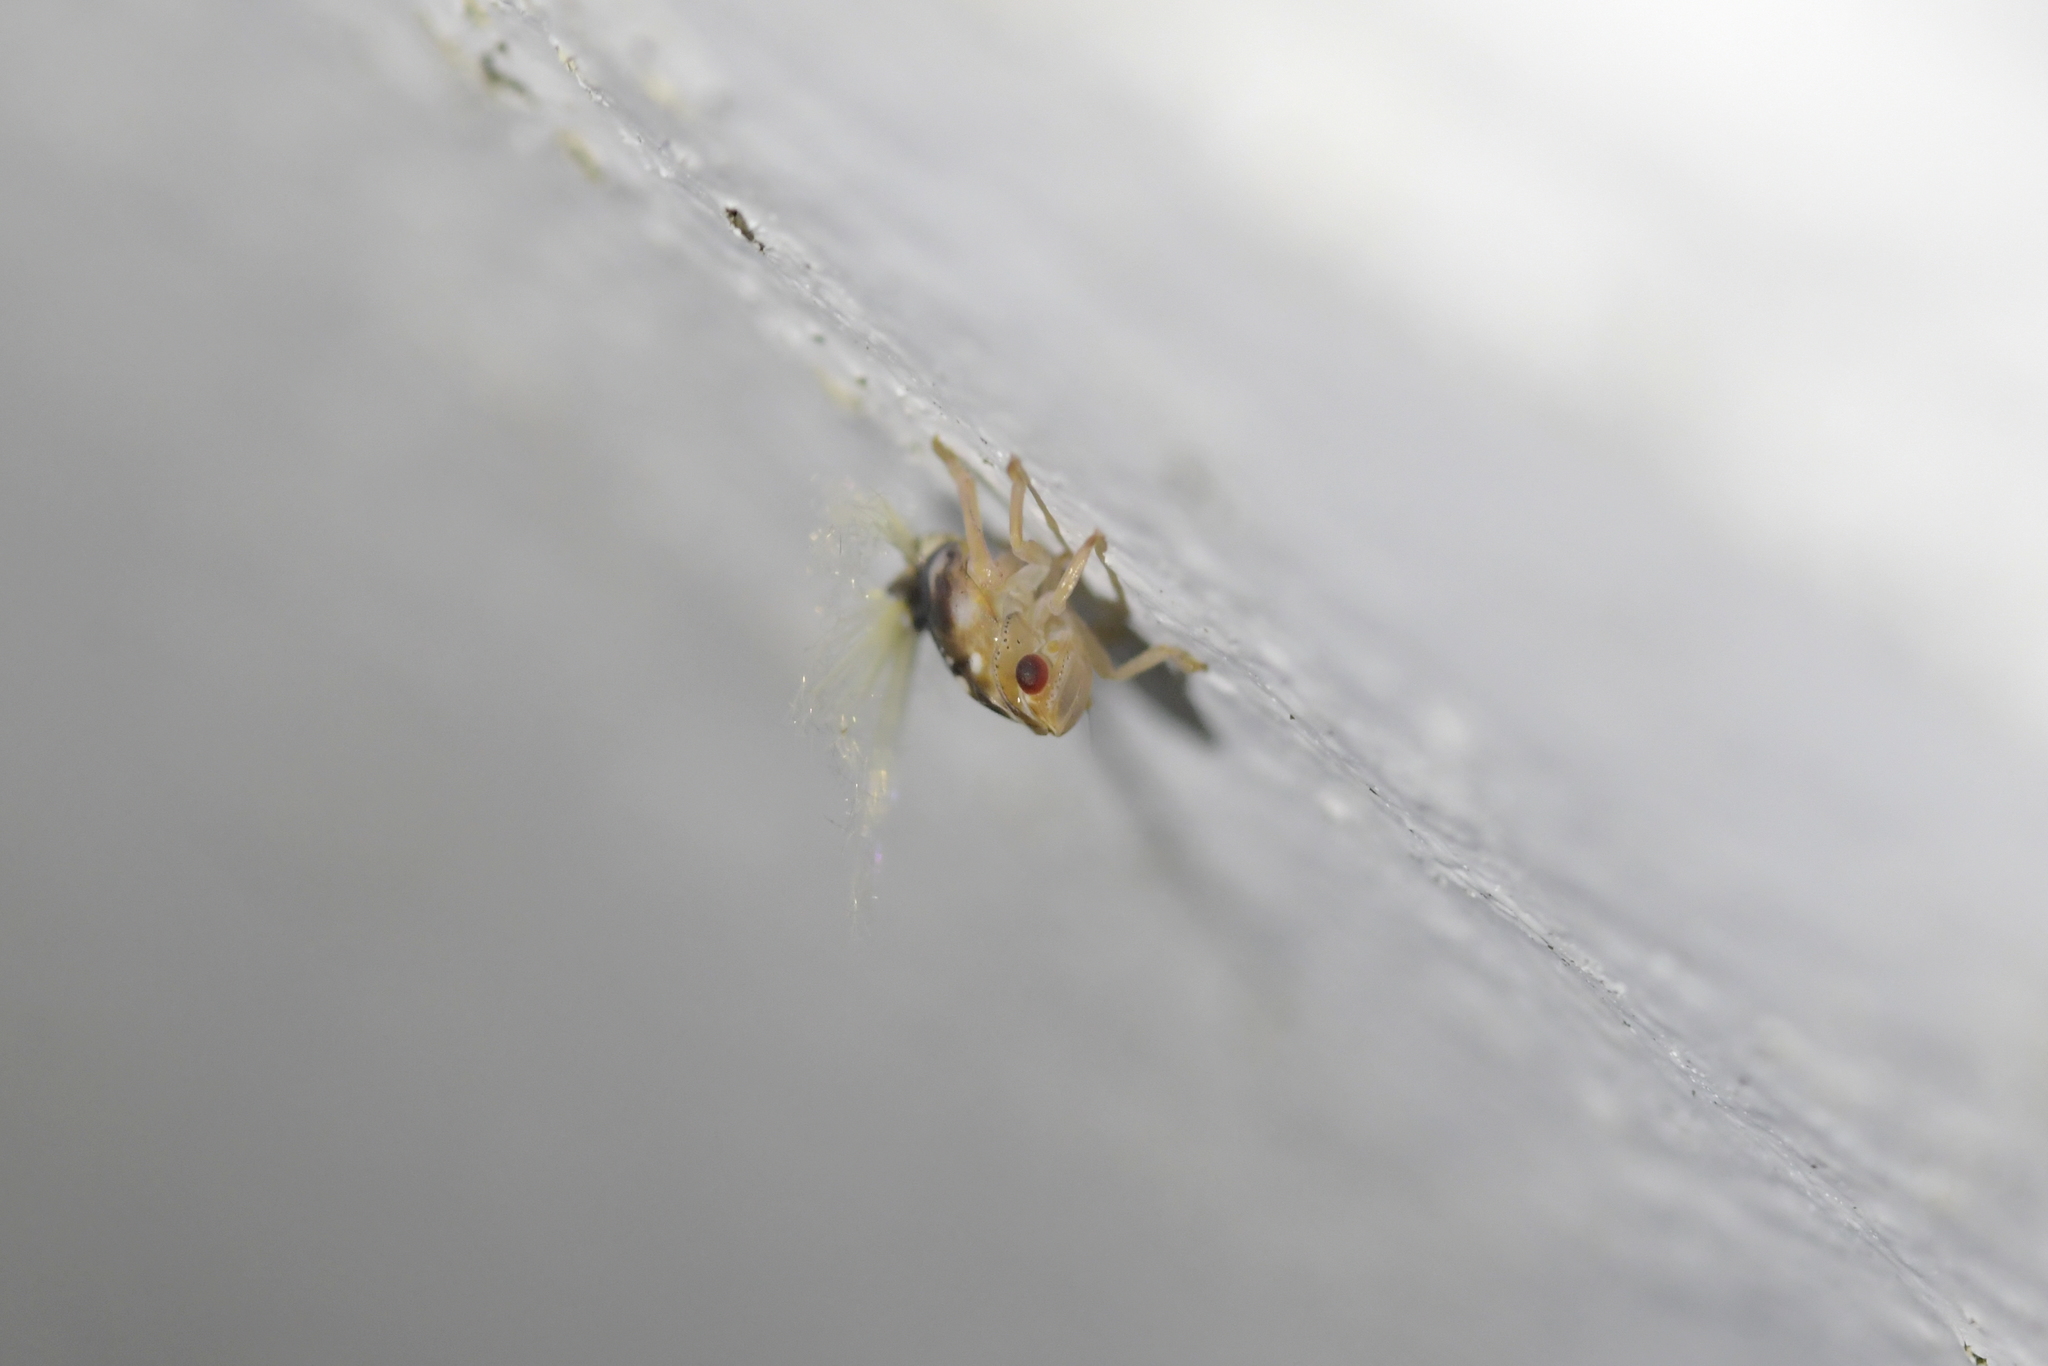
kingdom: Animalia
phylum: Arthropoda
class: Insecta
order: Hemiptera
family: Ricaniidae
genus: Scolypopa
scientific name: Scolypopa australis
